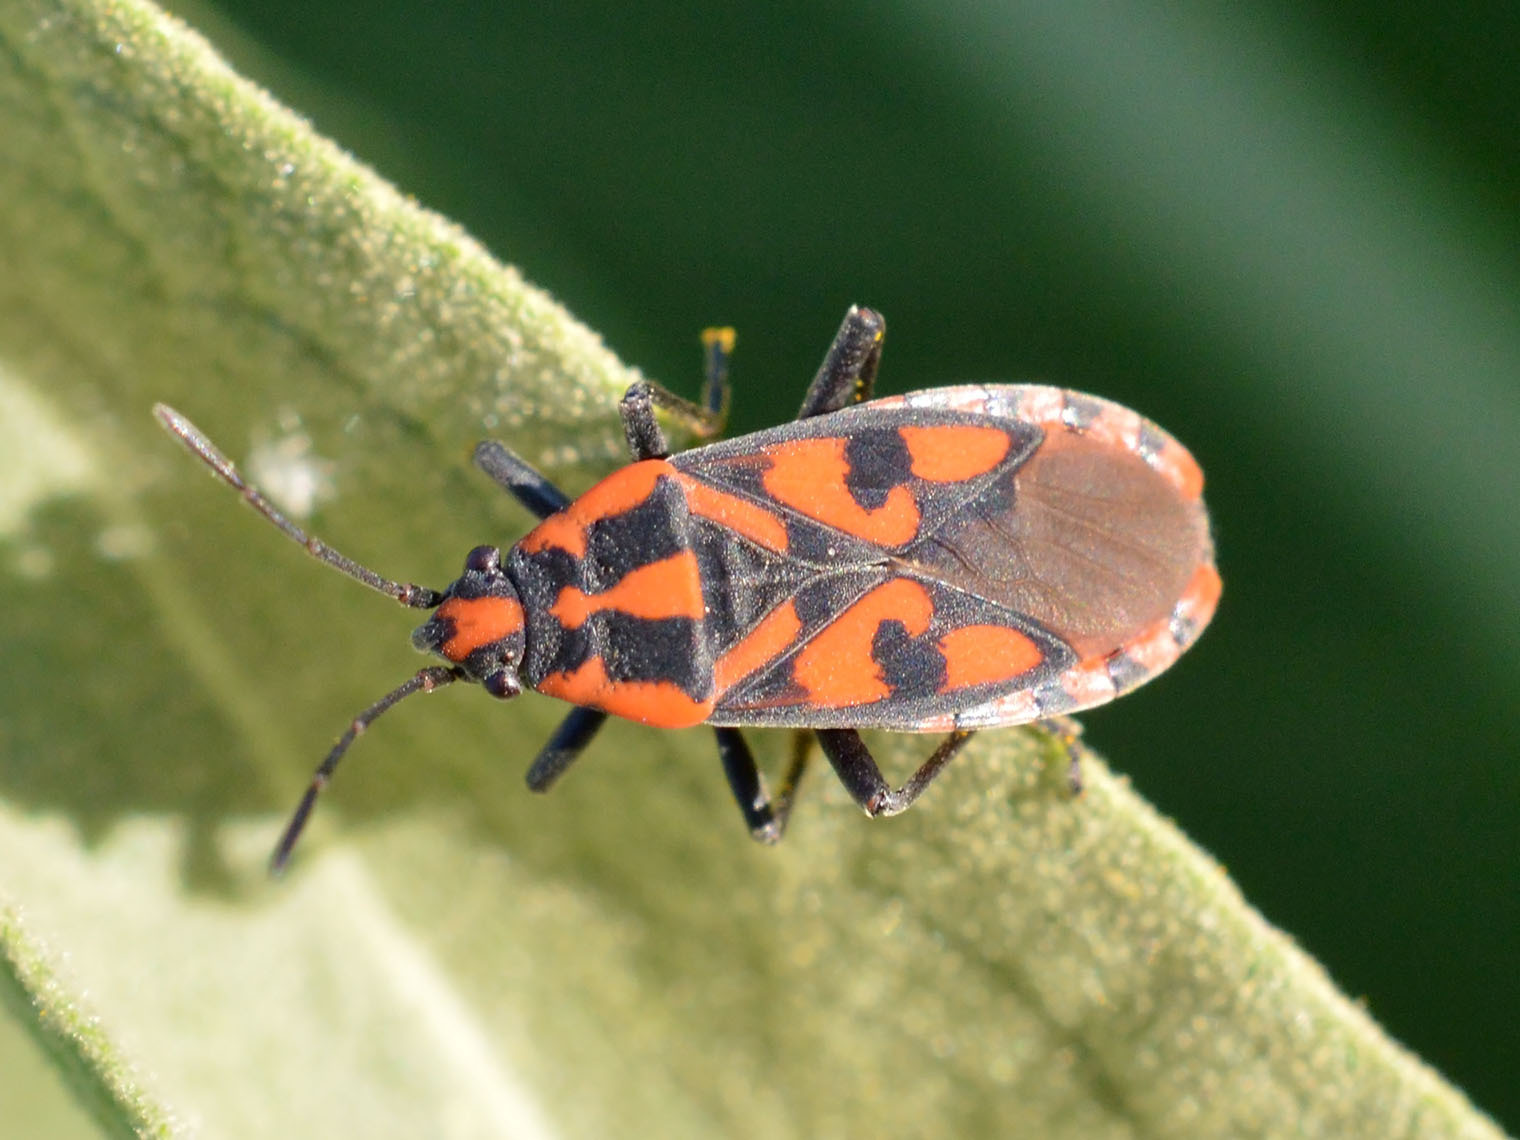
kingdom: Animalia
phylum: Arthropoda
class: Insecta
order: Hemiptera
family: Lygaeidae
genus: Spilostethus
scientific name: Spilostethus saxatilis
